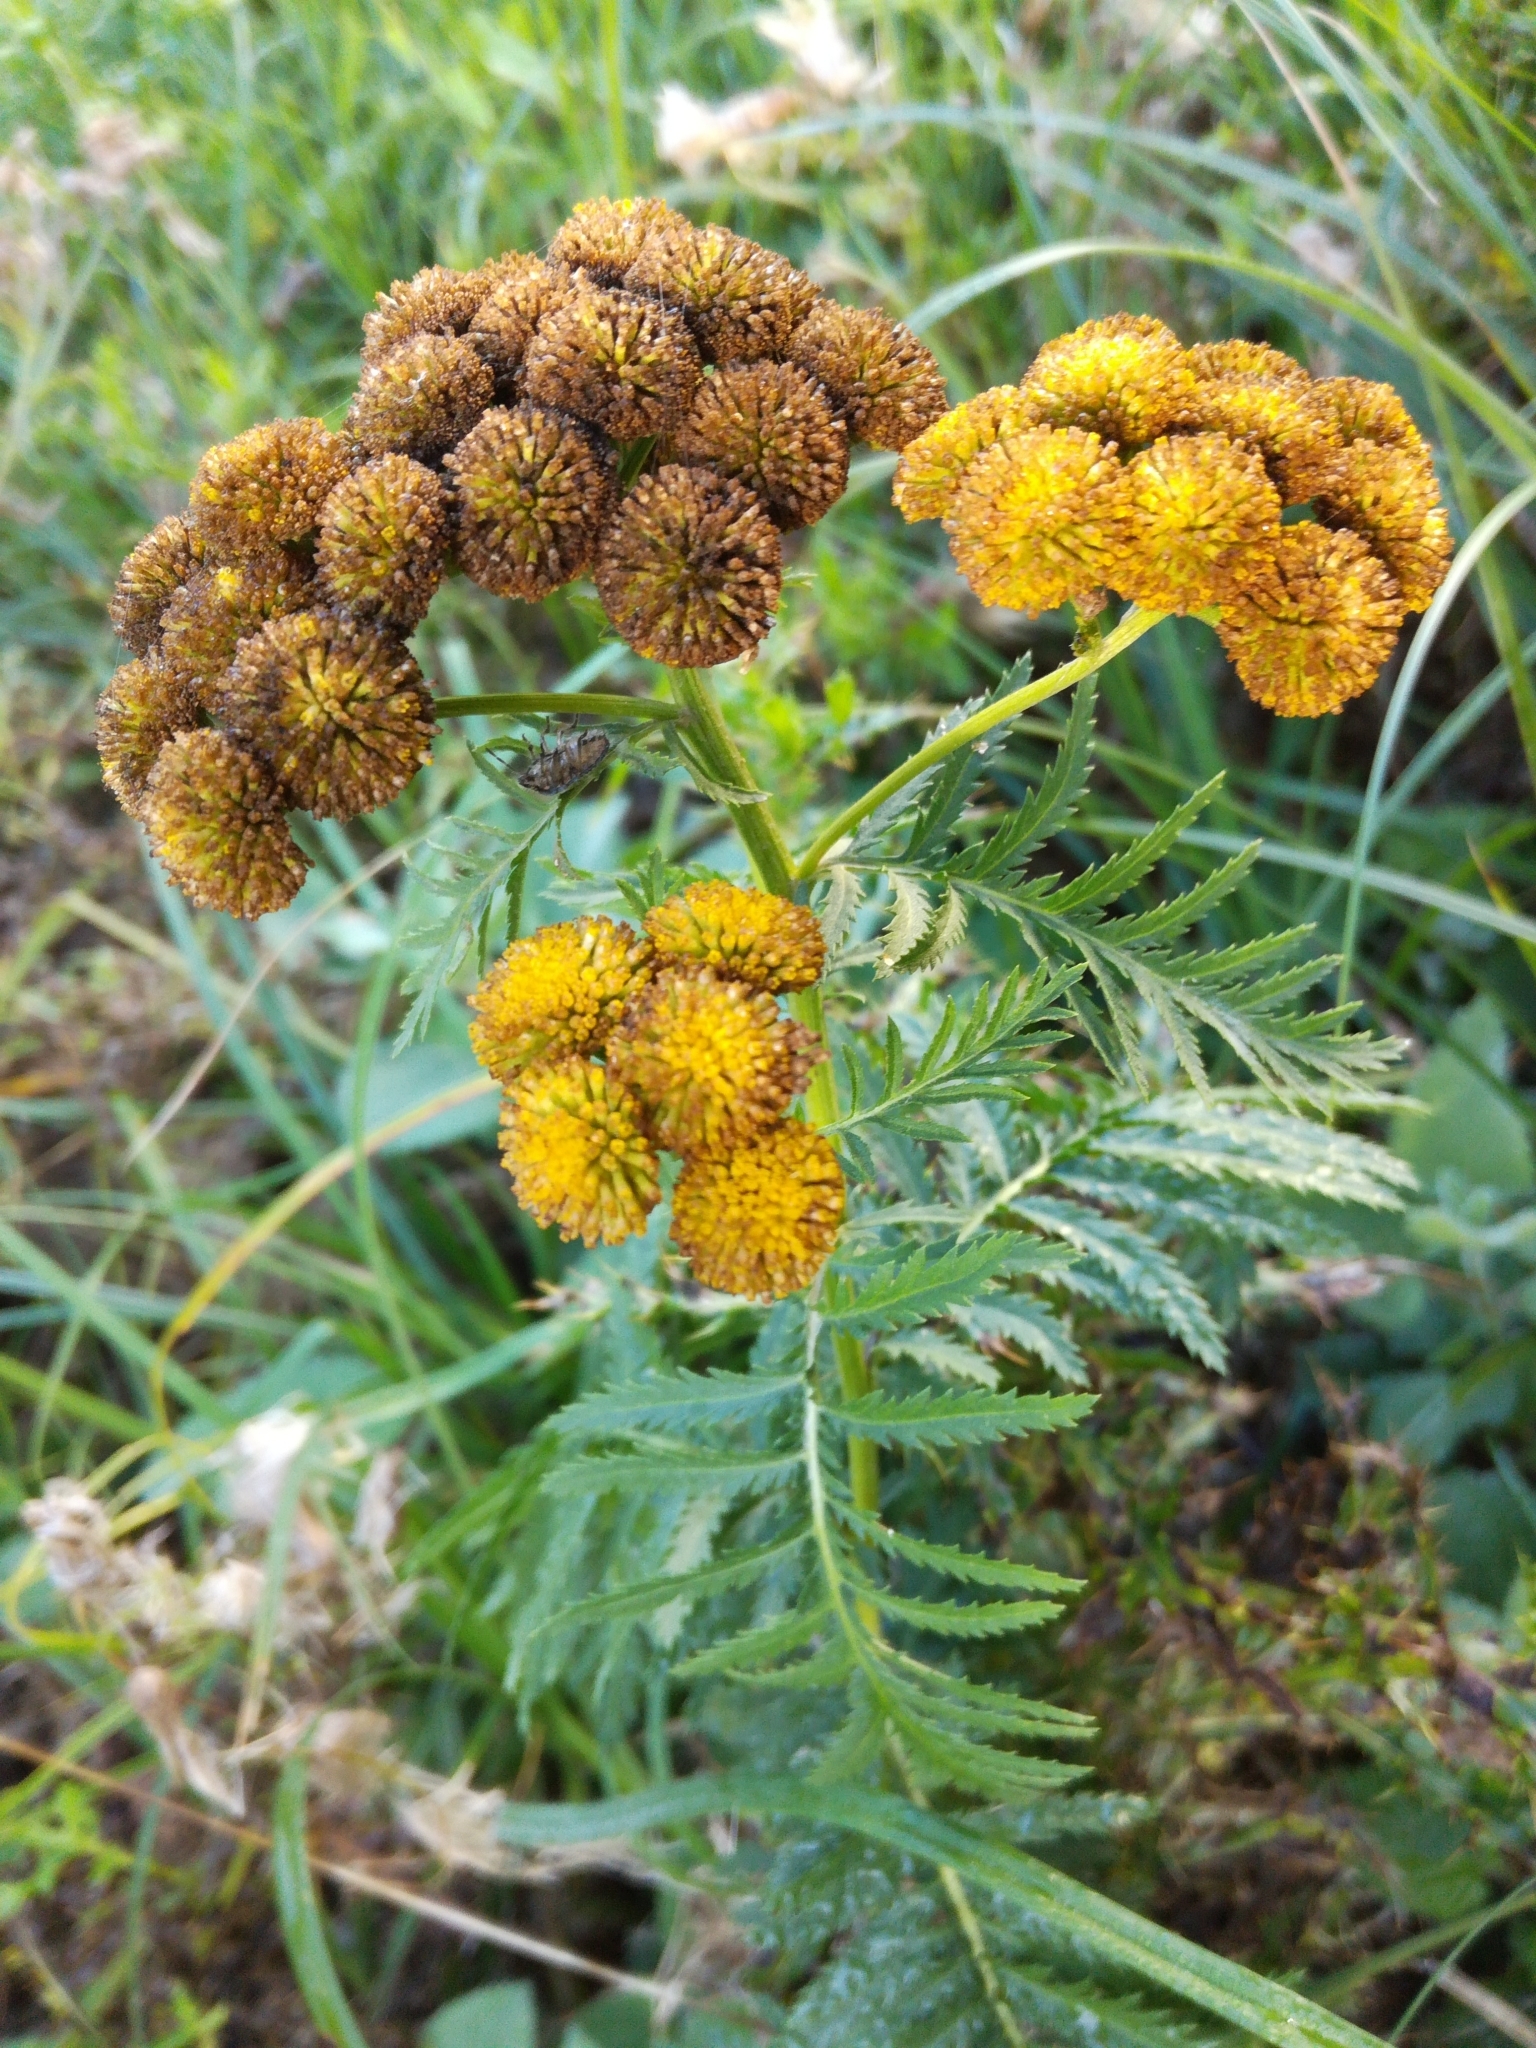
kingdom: Plantae
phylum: Tracheophyta
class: Magnoliopsida
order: Asterales
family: Asteraceae
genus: Tanacetum
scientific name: Tanacetum vulgare
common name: Common tansy
